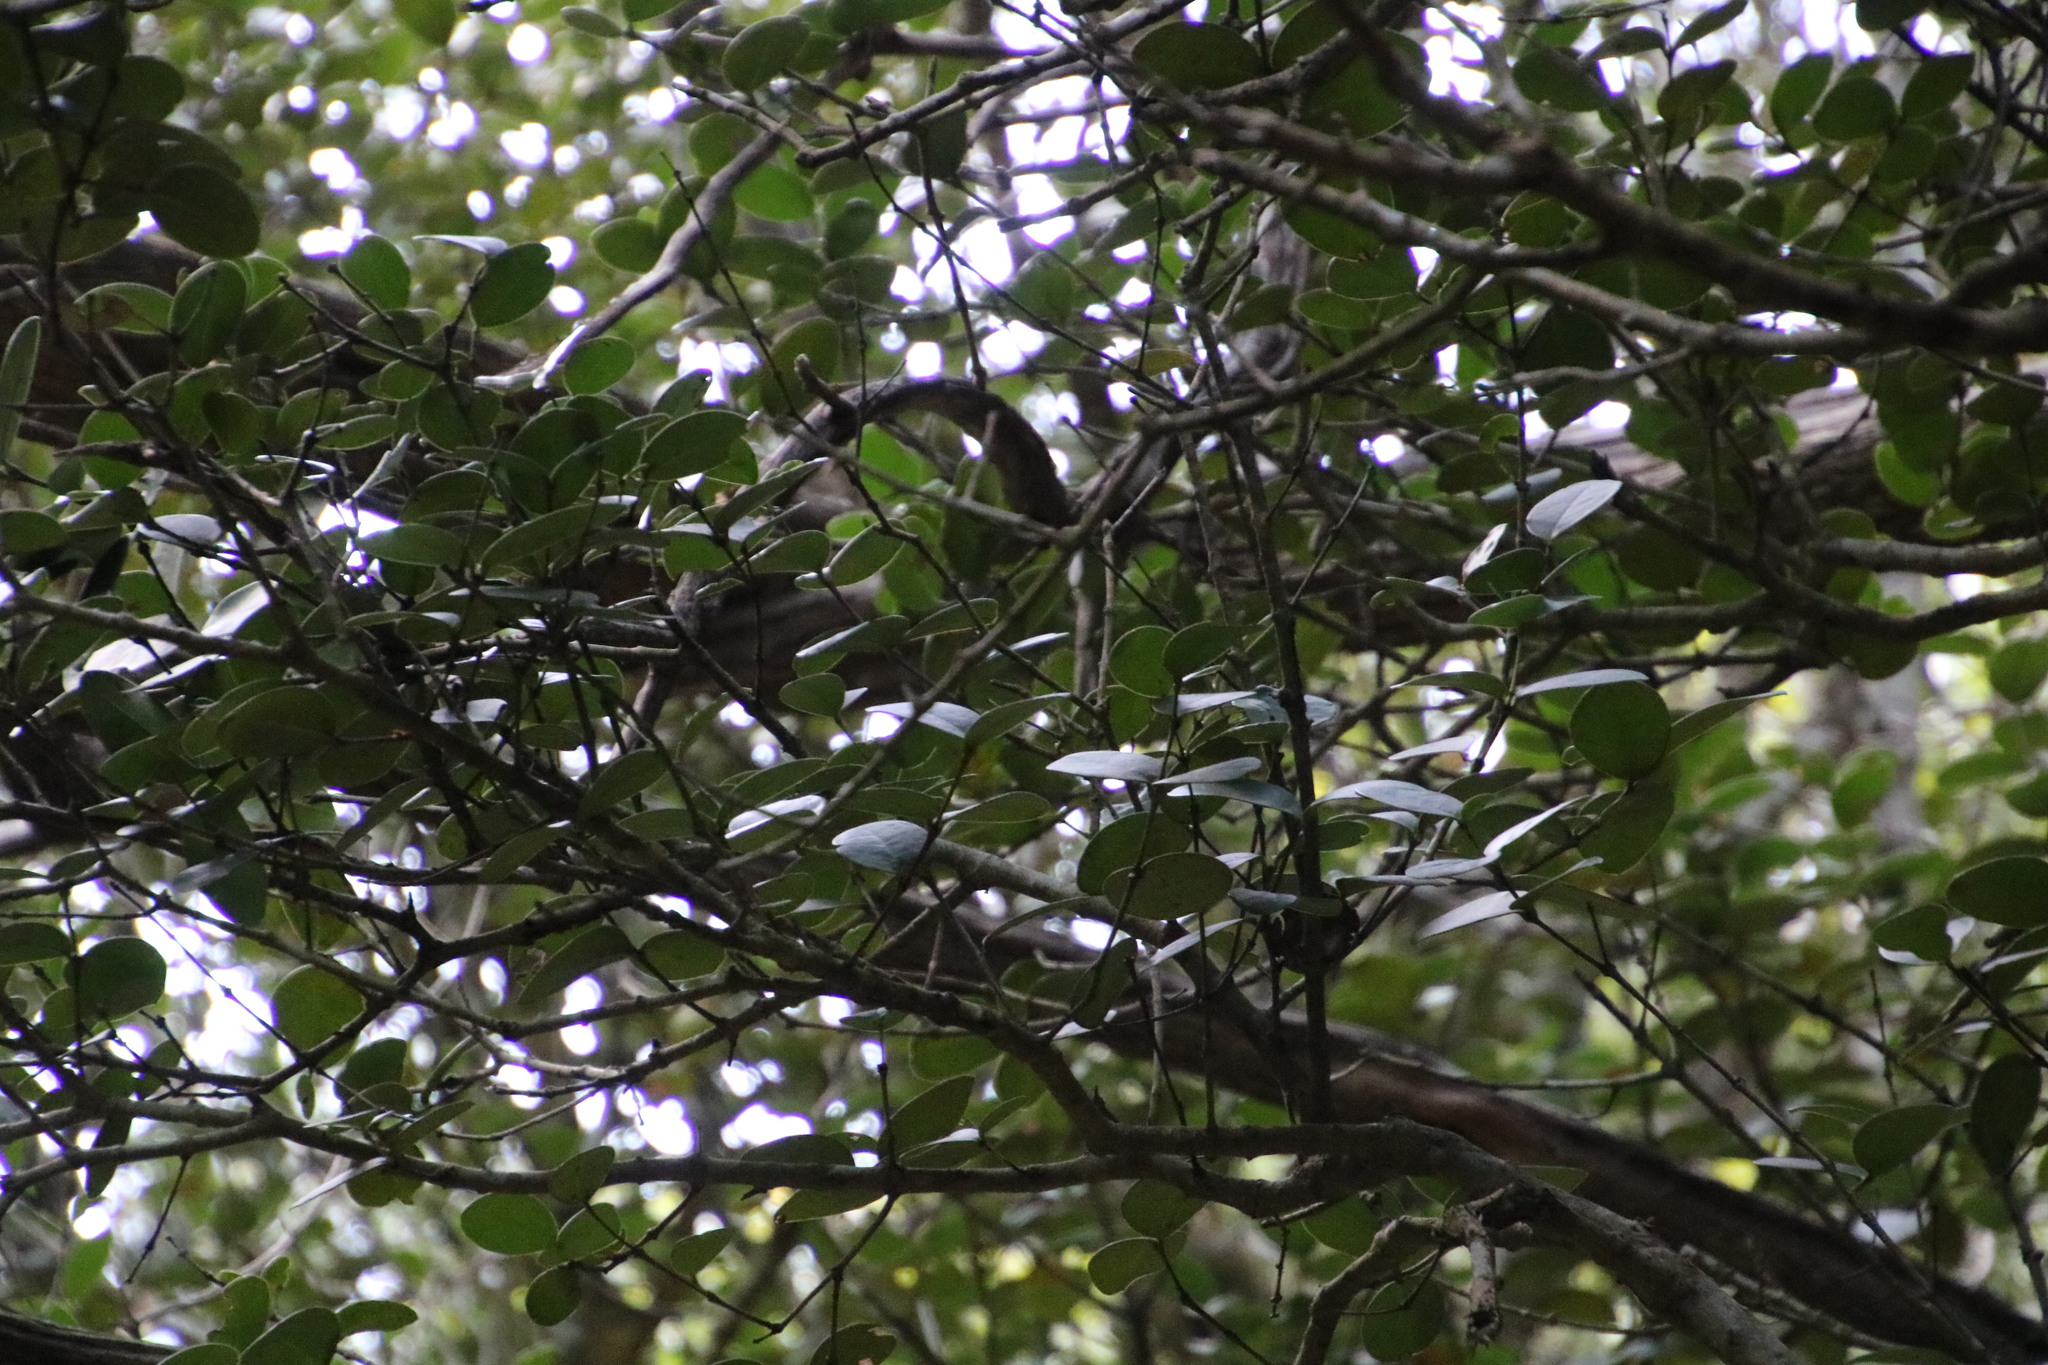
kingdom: Plantae
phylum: Tracheophyta
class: Magnoliopsida
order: Celastrales
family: Celastraceae
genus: Pterocelastrus
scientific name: Pterocelastrus tricuspidatus
